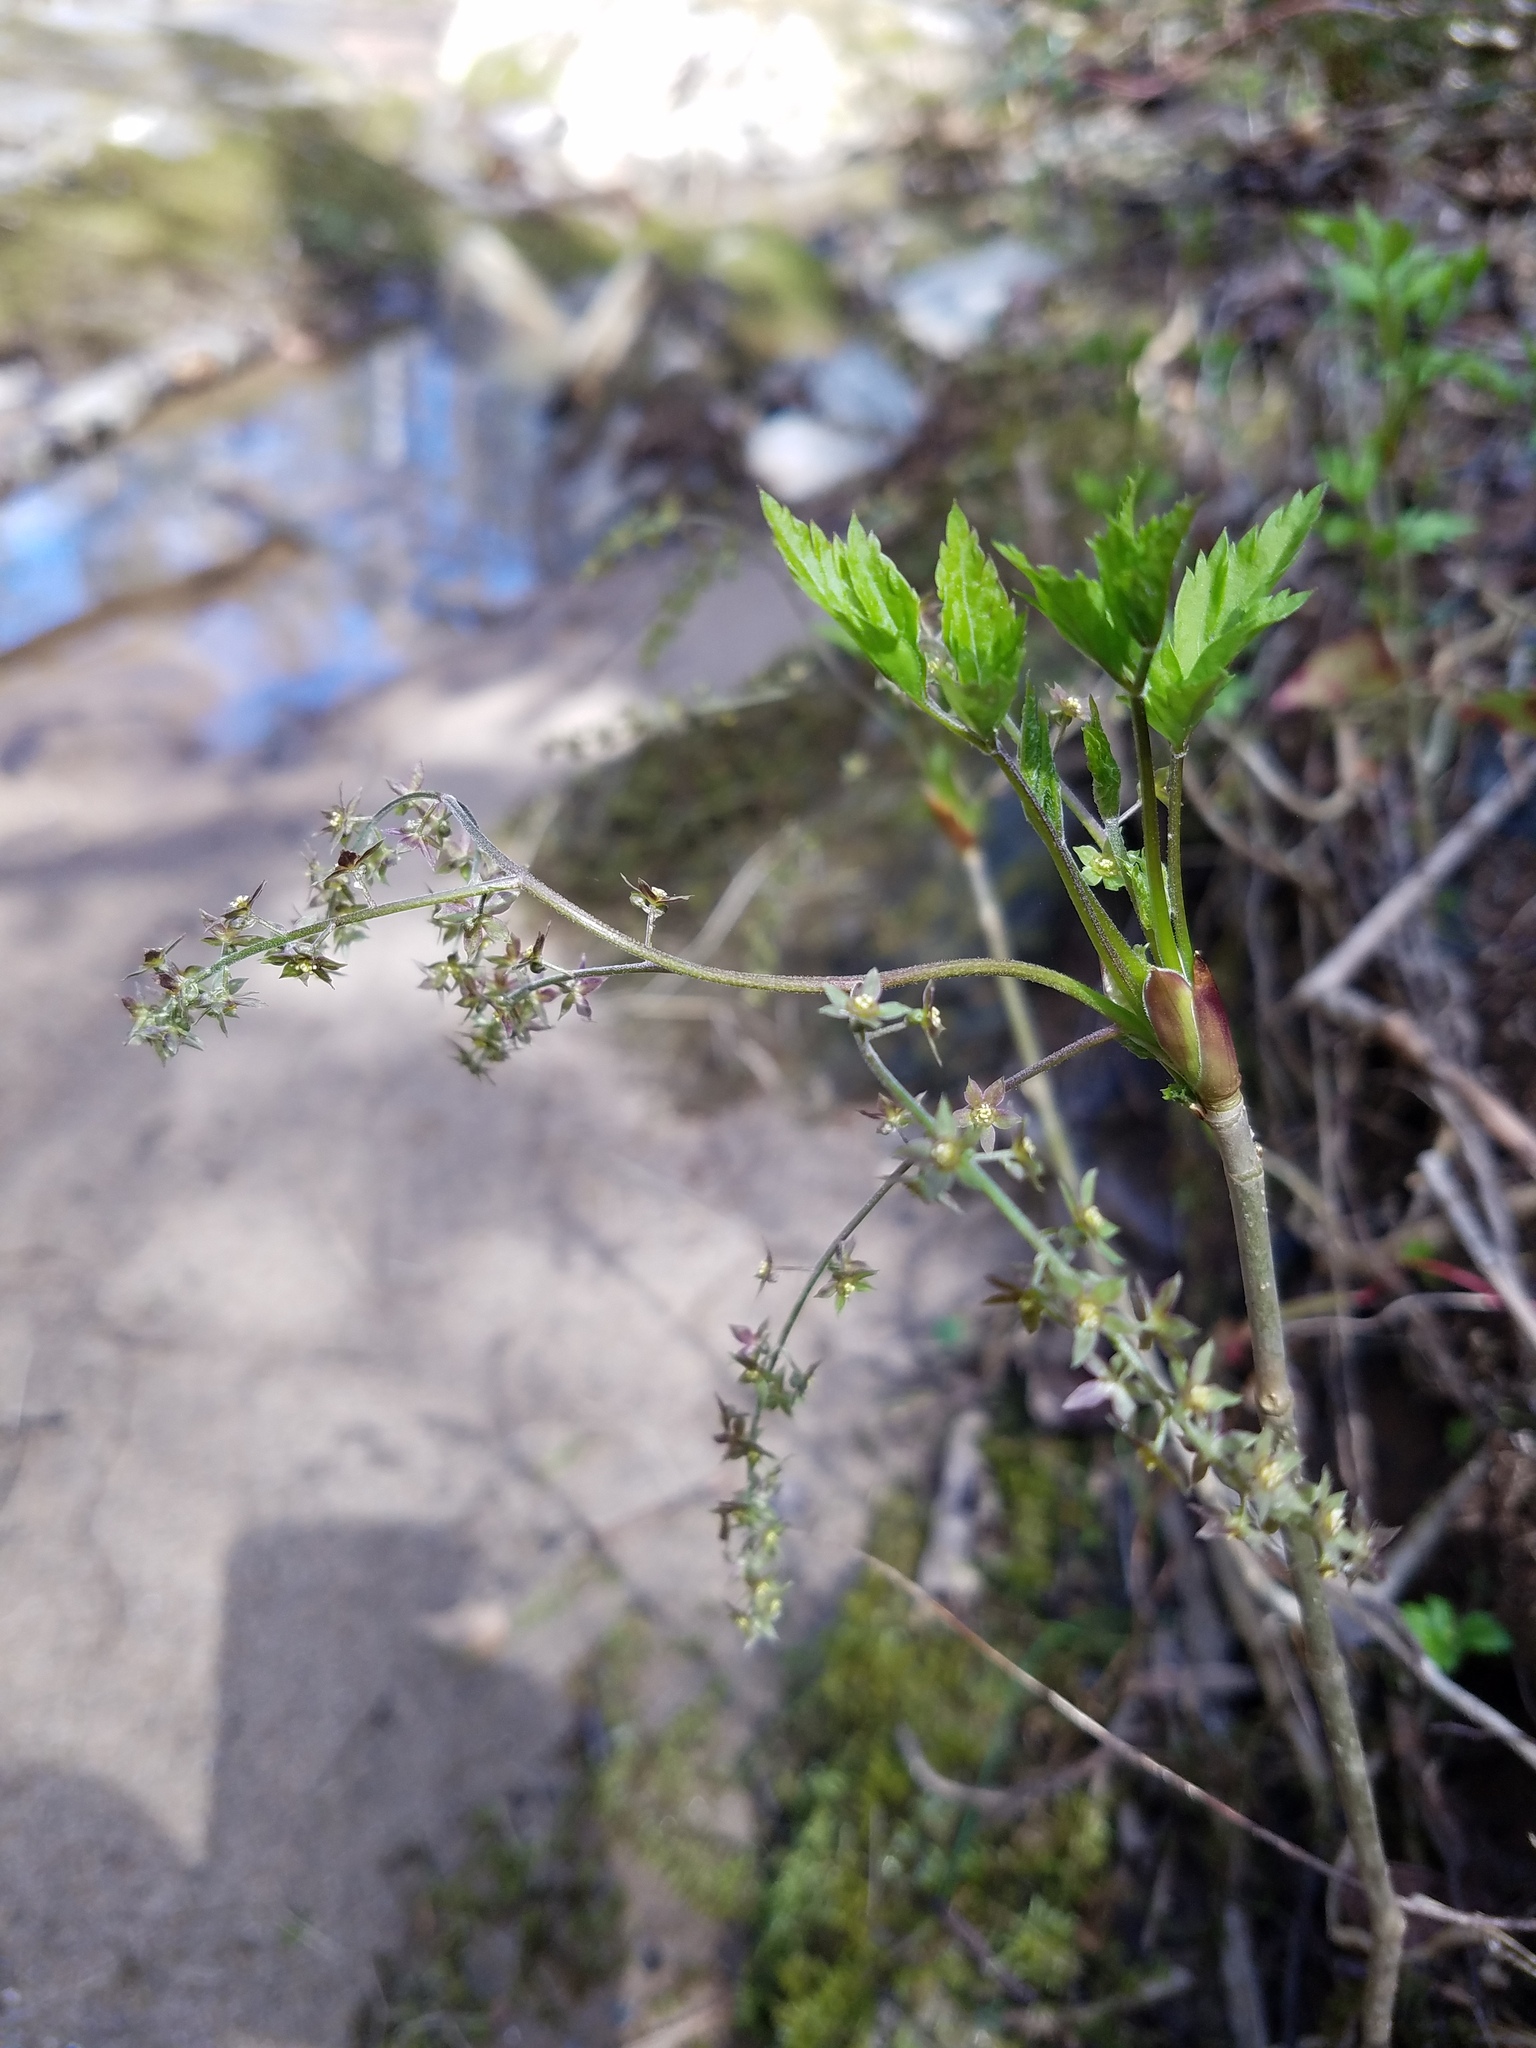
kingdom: Plantae
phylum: Tracheophyta
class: Magnoliopsida
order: Ranunculales
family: Ranunculaceae
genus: Xanthorhiza
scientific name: Xanthorhiza simplicissima
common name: Yellowroot
